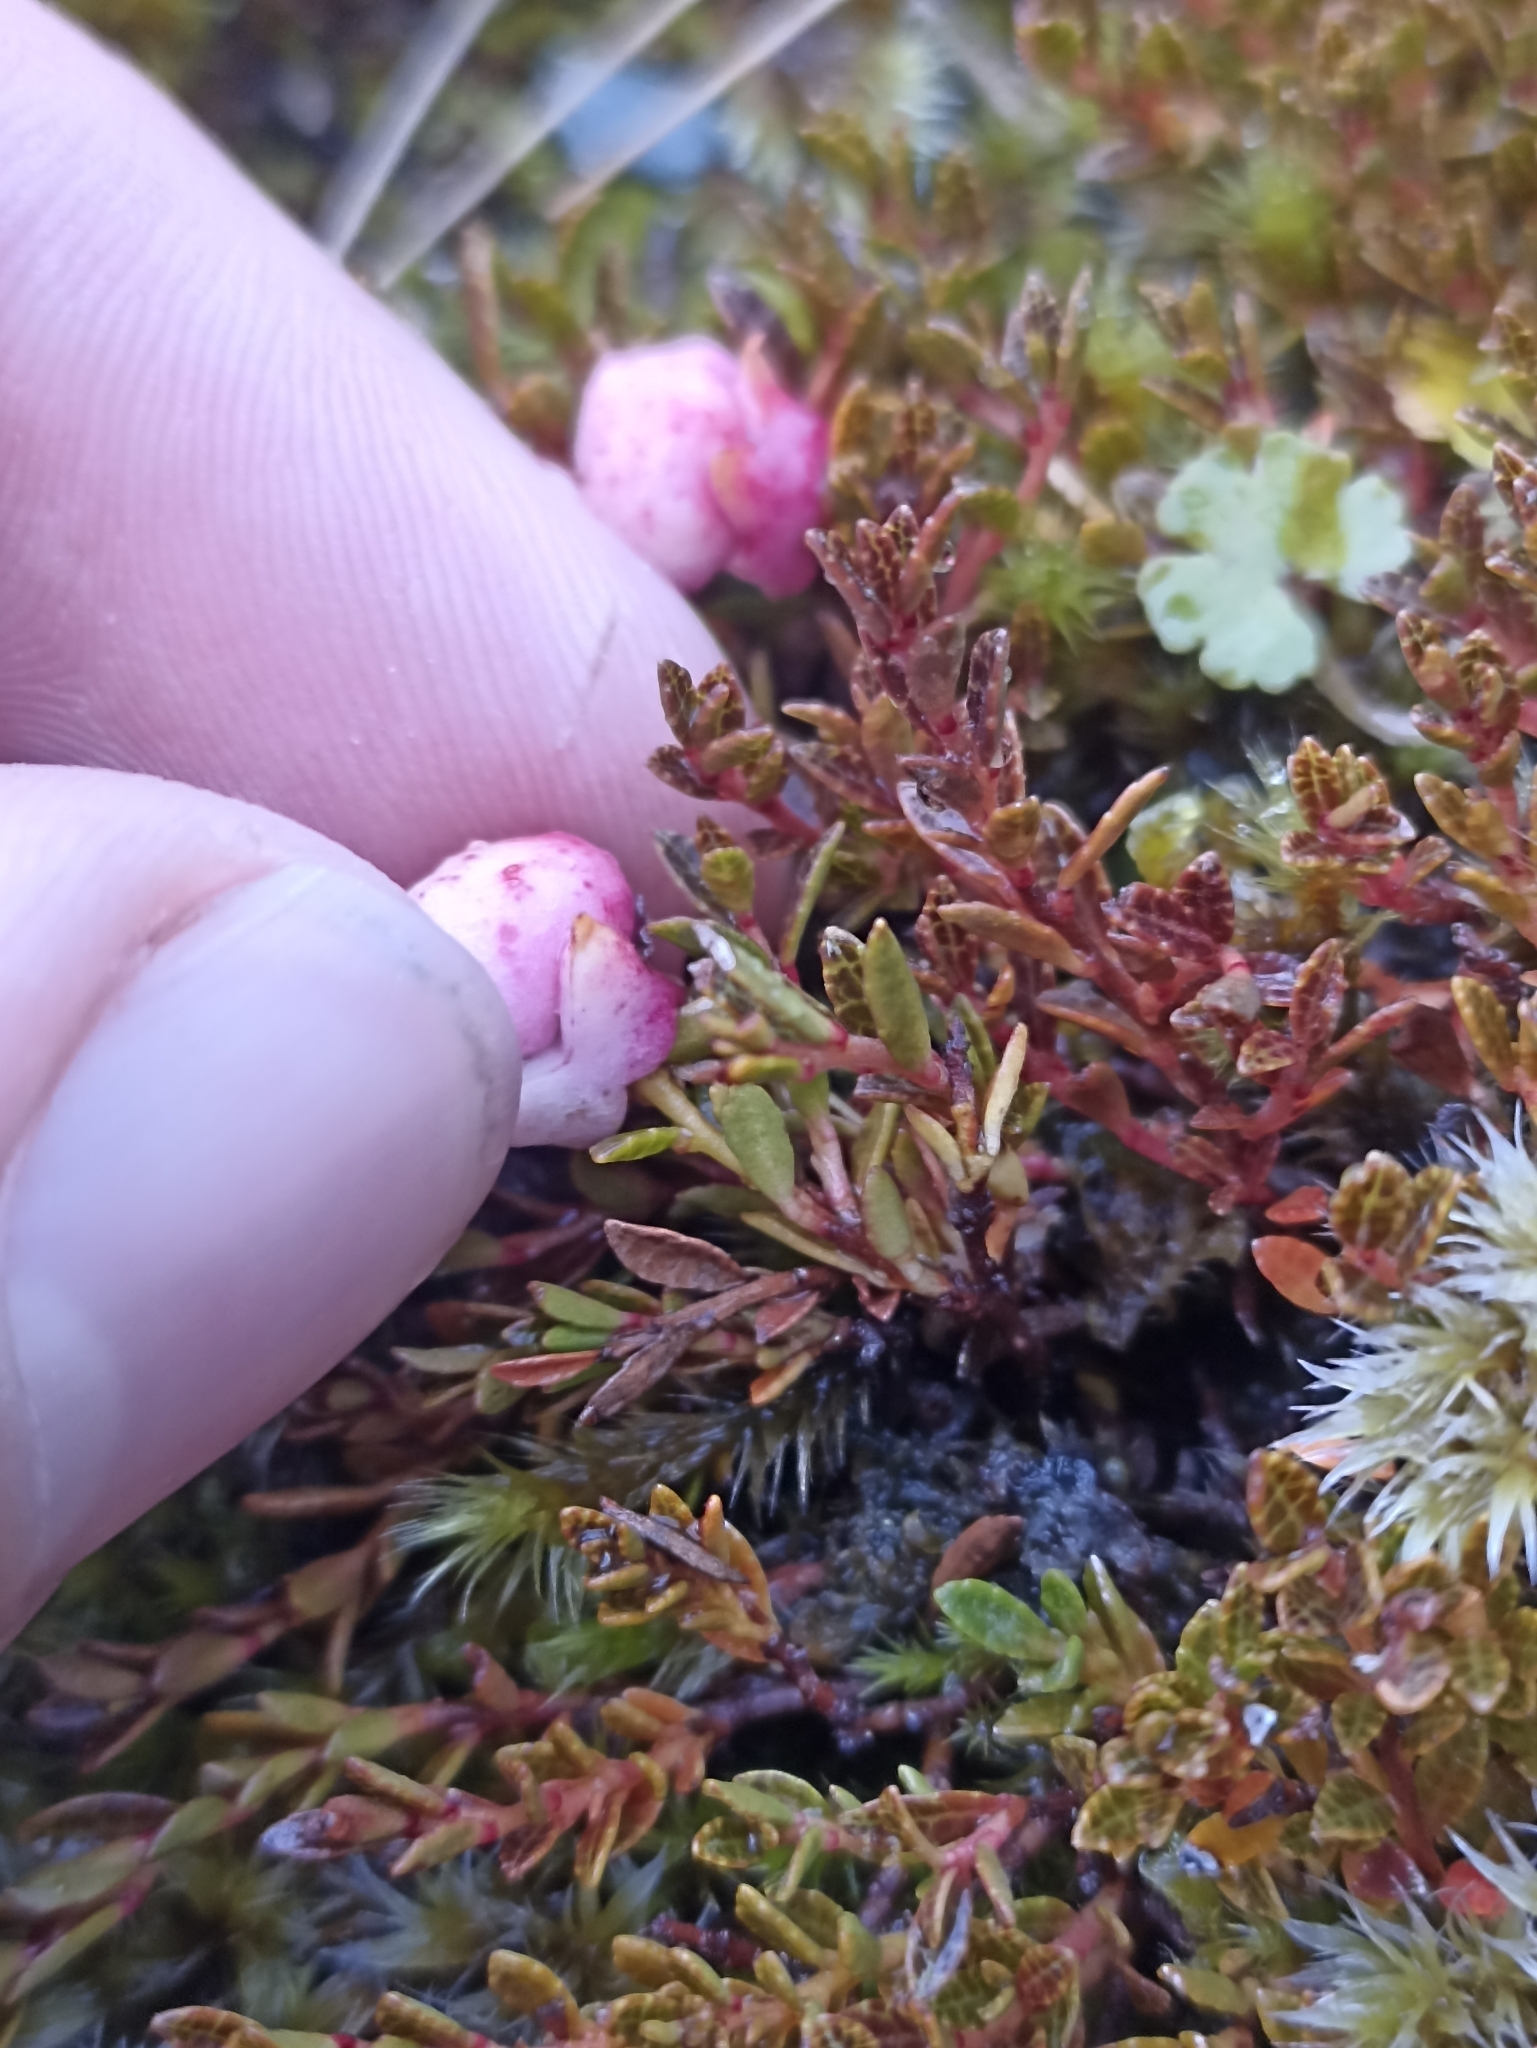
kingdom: Plantae
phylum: Tracheophyta
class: Magnoliopsida
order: Ericales
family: Ericaceae
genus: Gaultheria
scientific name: Gaultheria parvula
